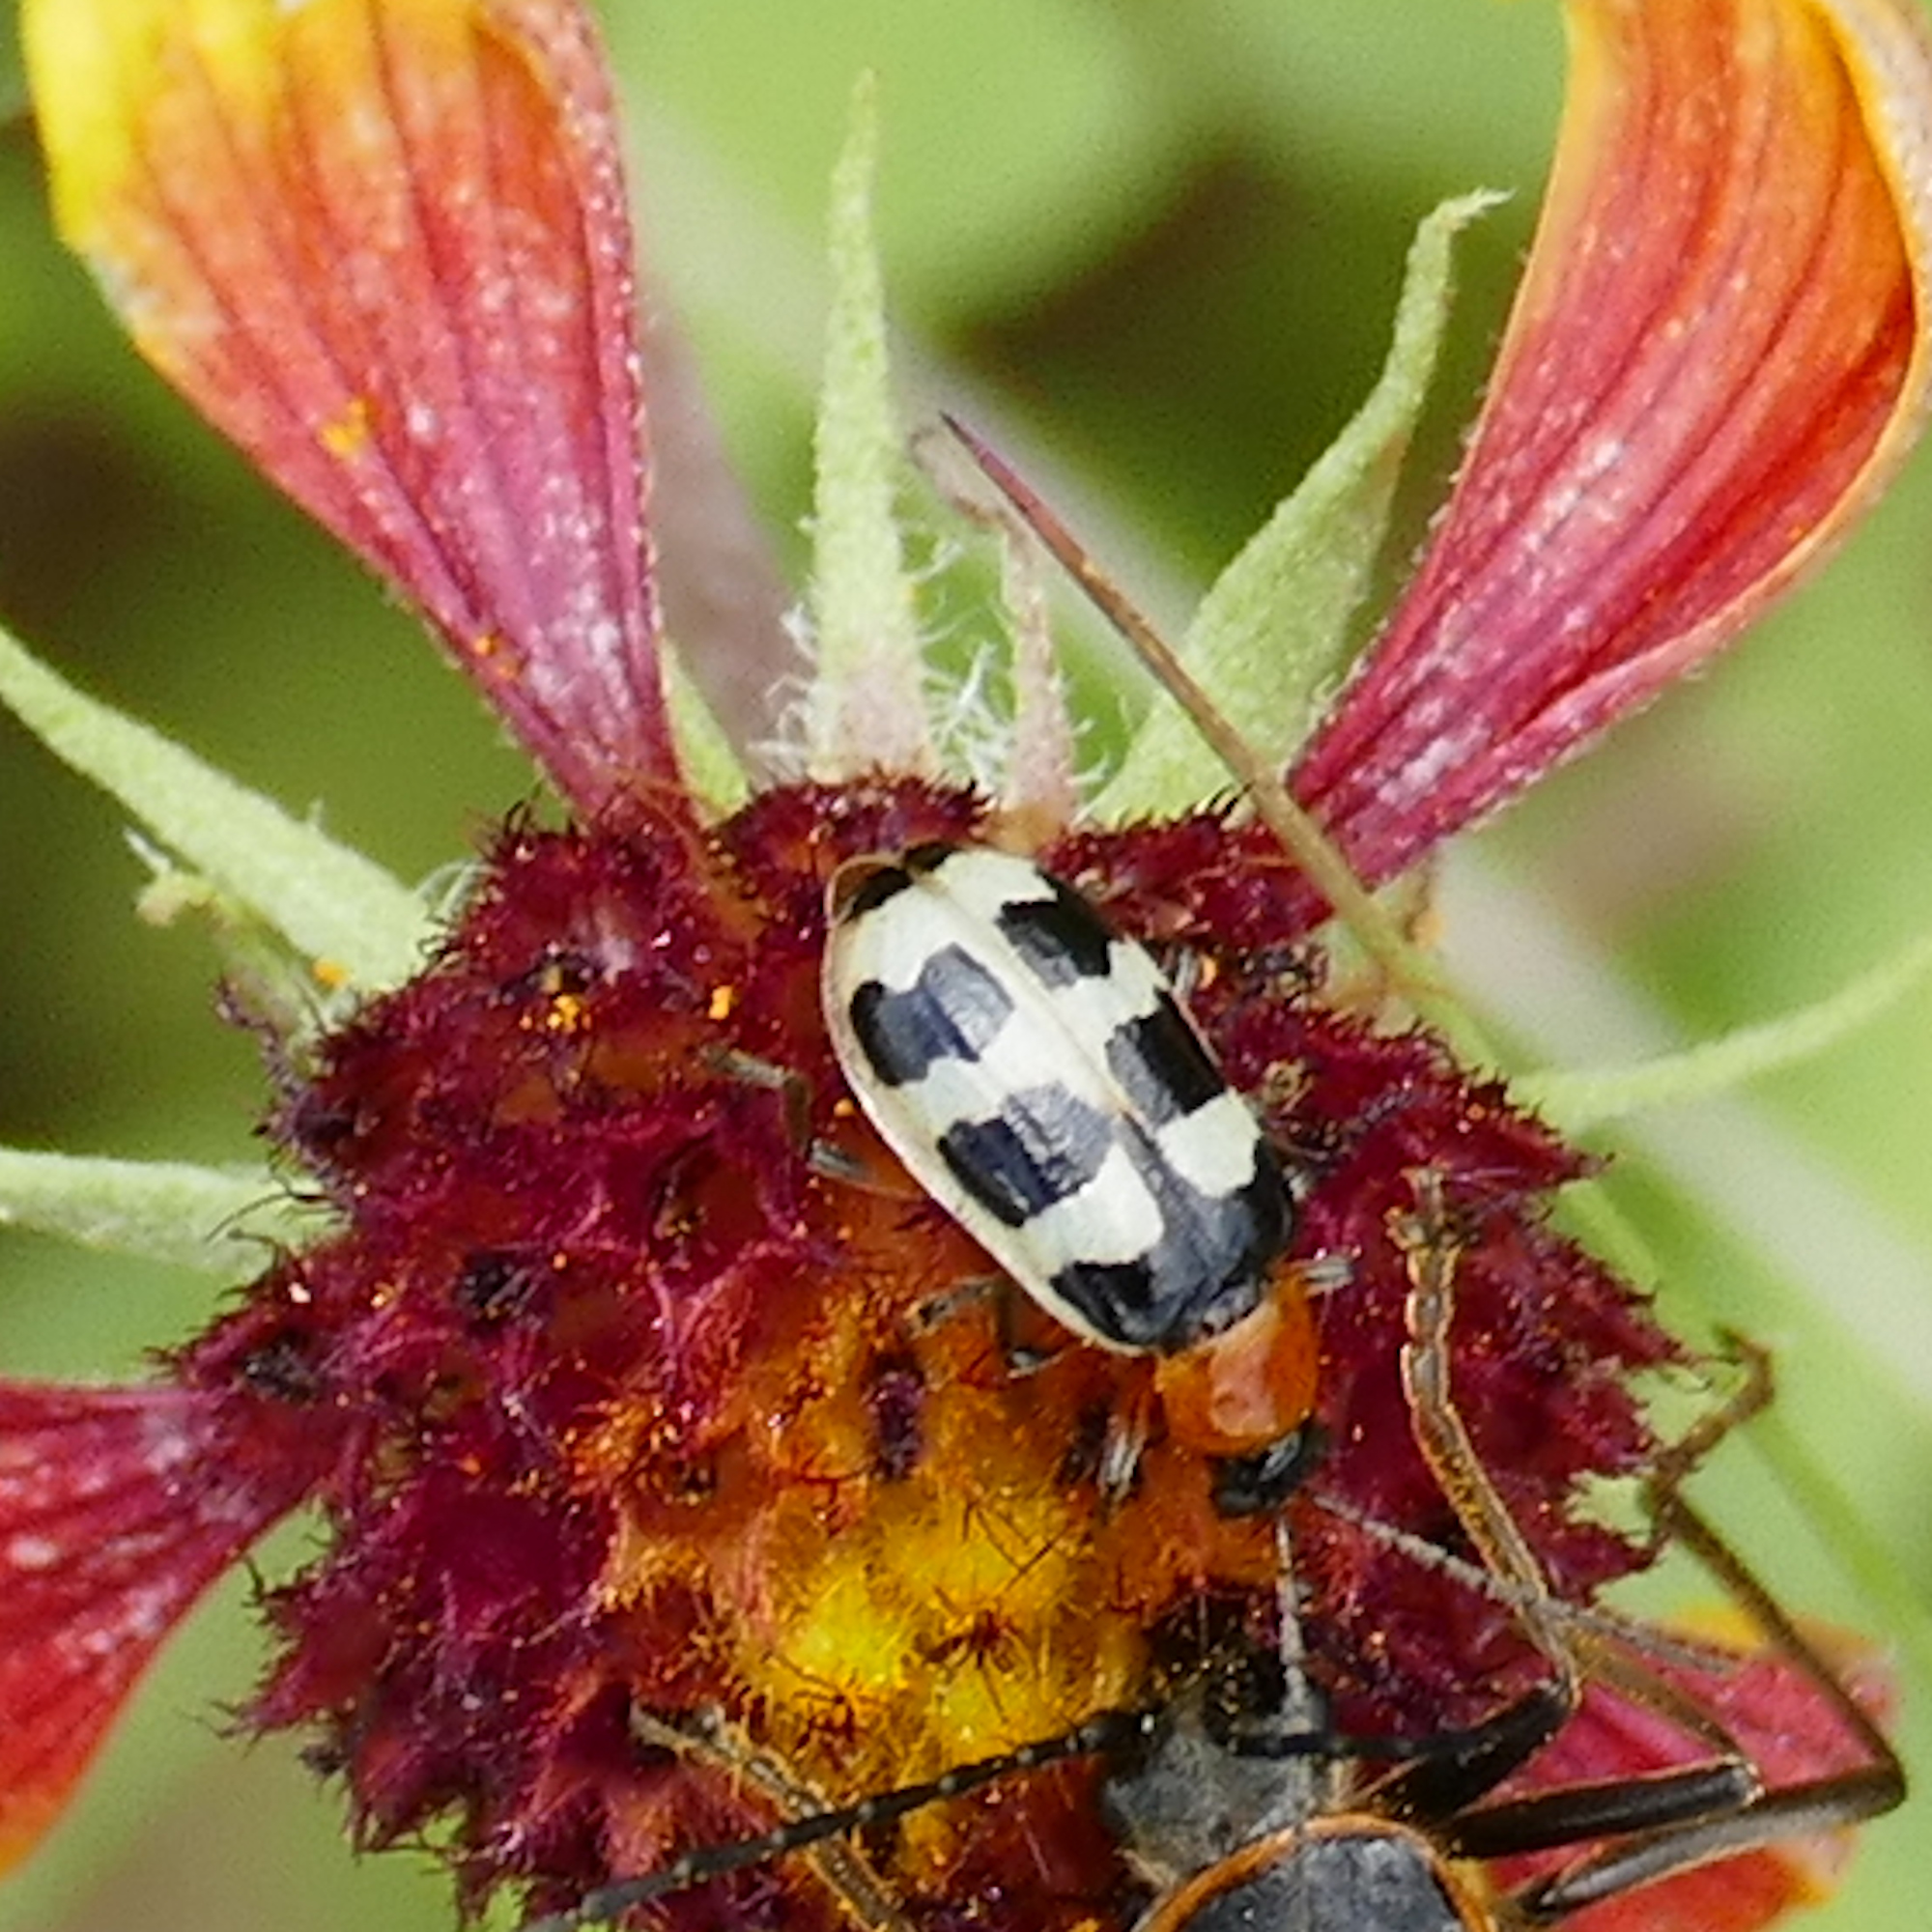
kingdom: Animalia
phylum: Arthropoda
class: Insecta
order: Coleoptera
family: Chrysomelidae
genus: Paranapiacaba
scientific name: Paranapiacaba tricincta
